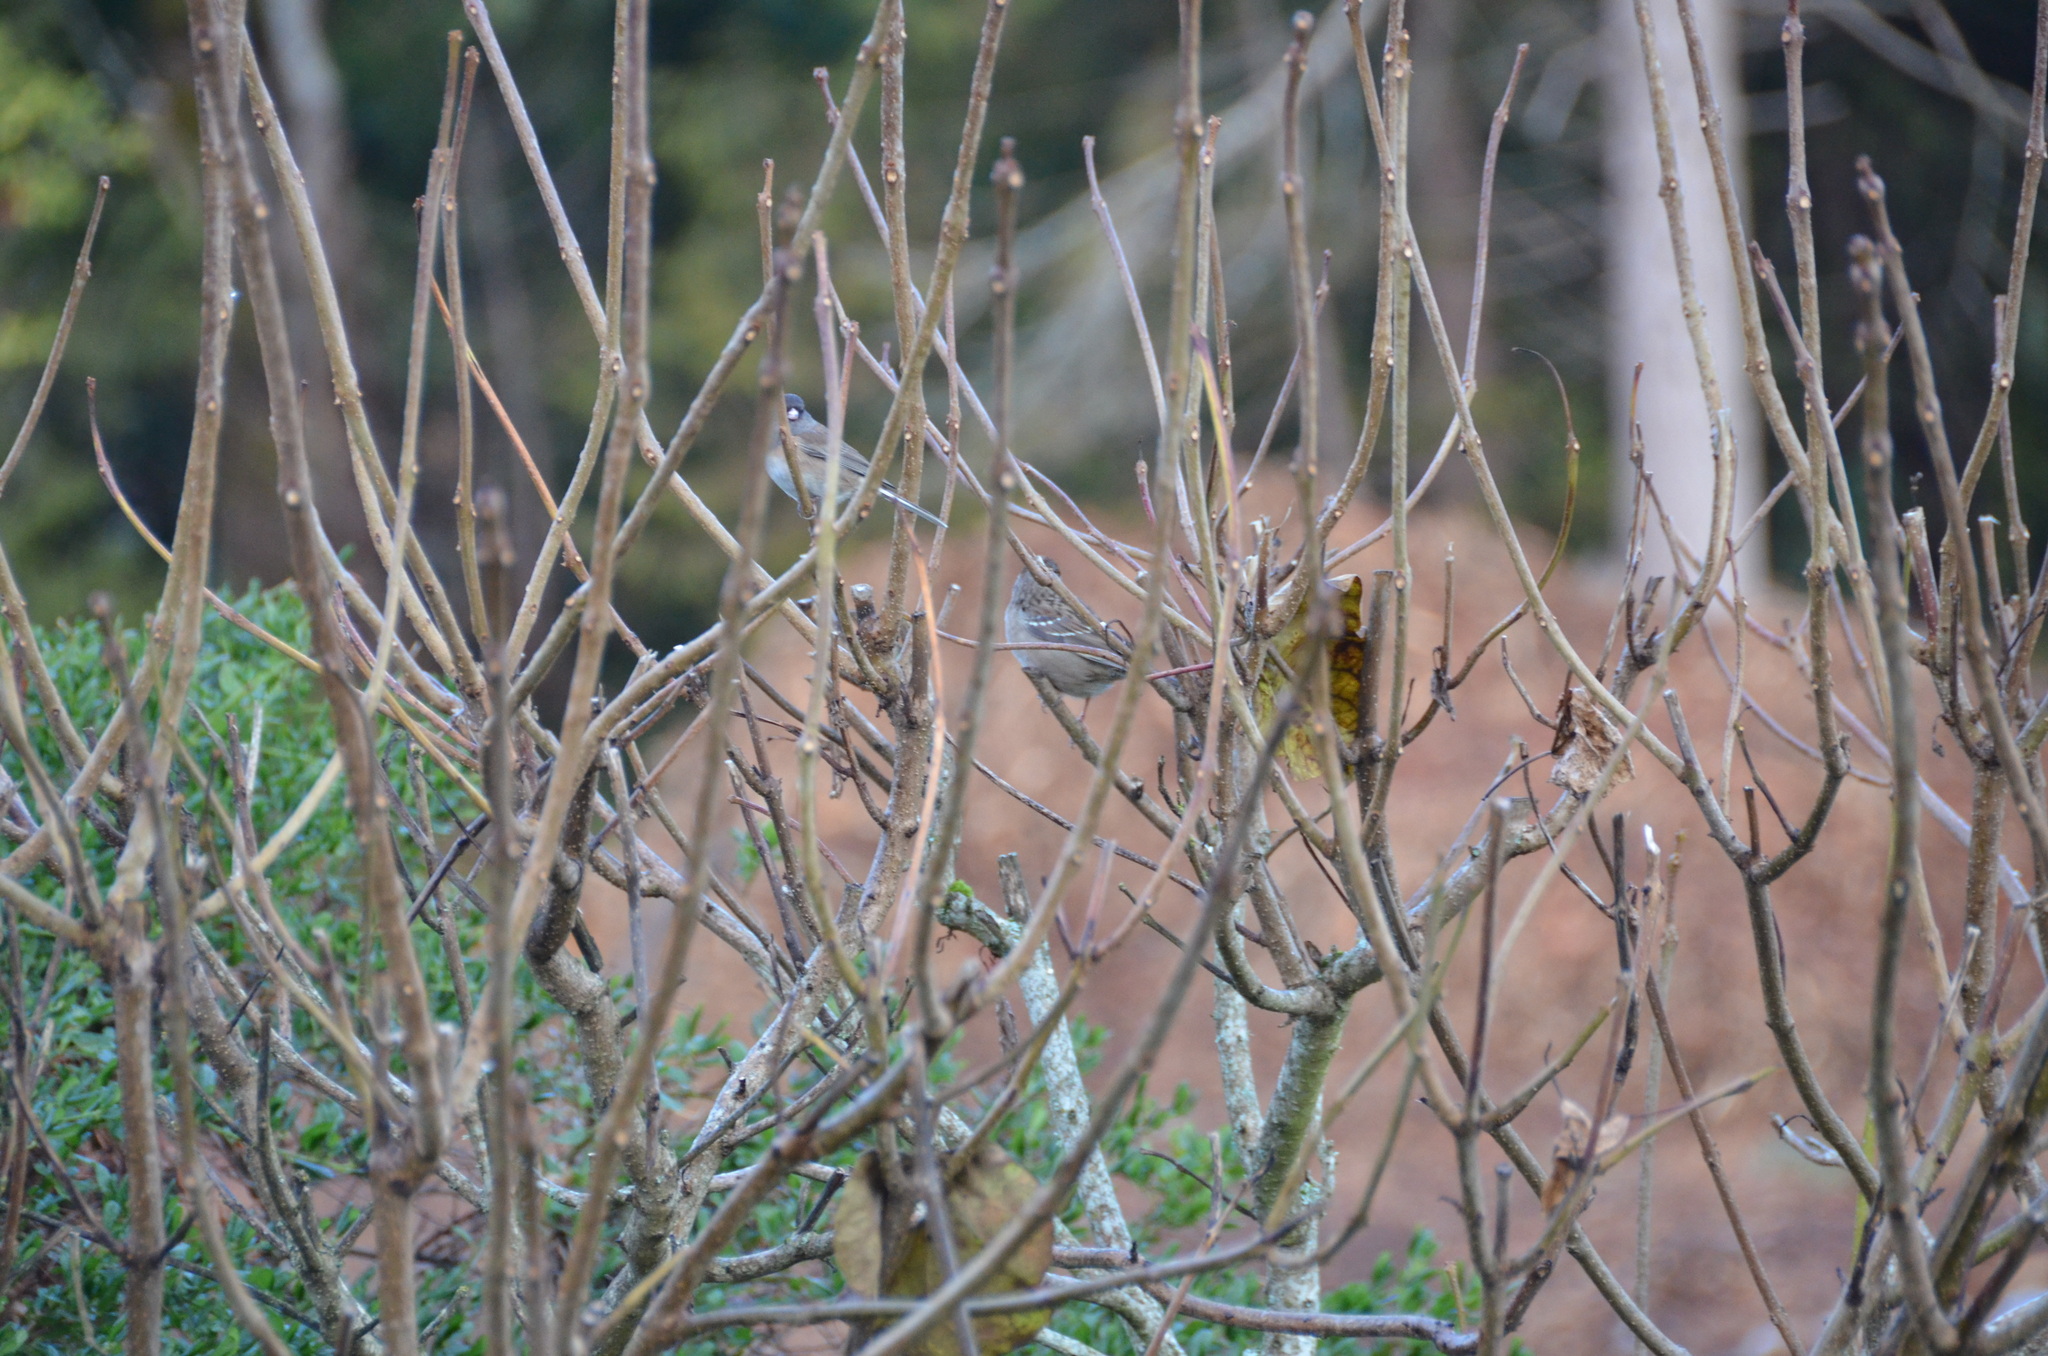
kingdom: Animalia
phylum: Chordata
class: Aves
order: Passeriformes
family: Passerellidae
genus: Zonotrichia
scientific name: Zonotrichia atricapilla
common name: Golden-crowned sparrow
